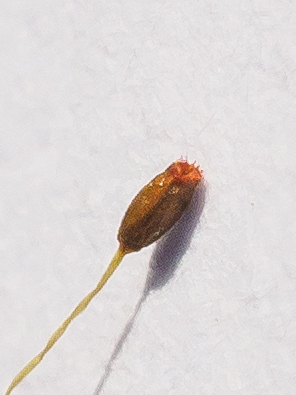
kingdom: Plantae
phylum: Bryophyta
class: Bryopsida
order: Pottiales
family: Pottiaceae
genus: Weissia
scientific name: Weissia controversa
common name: Green-tufted stubble moss
